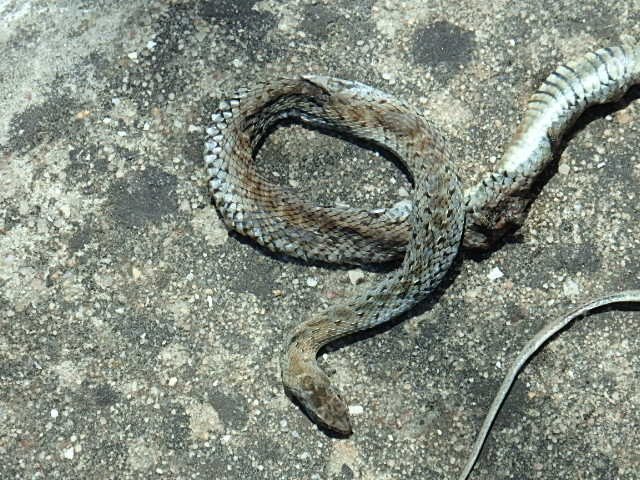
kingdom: Animalia
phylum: Chordata
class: Squamata
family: Psammophiidae
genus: Malpolon
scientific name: Malpolon monspessulanus
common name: Montpellier snake
